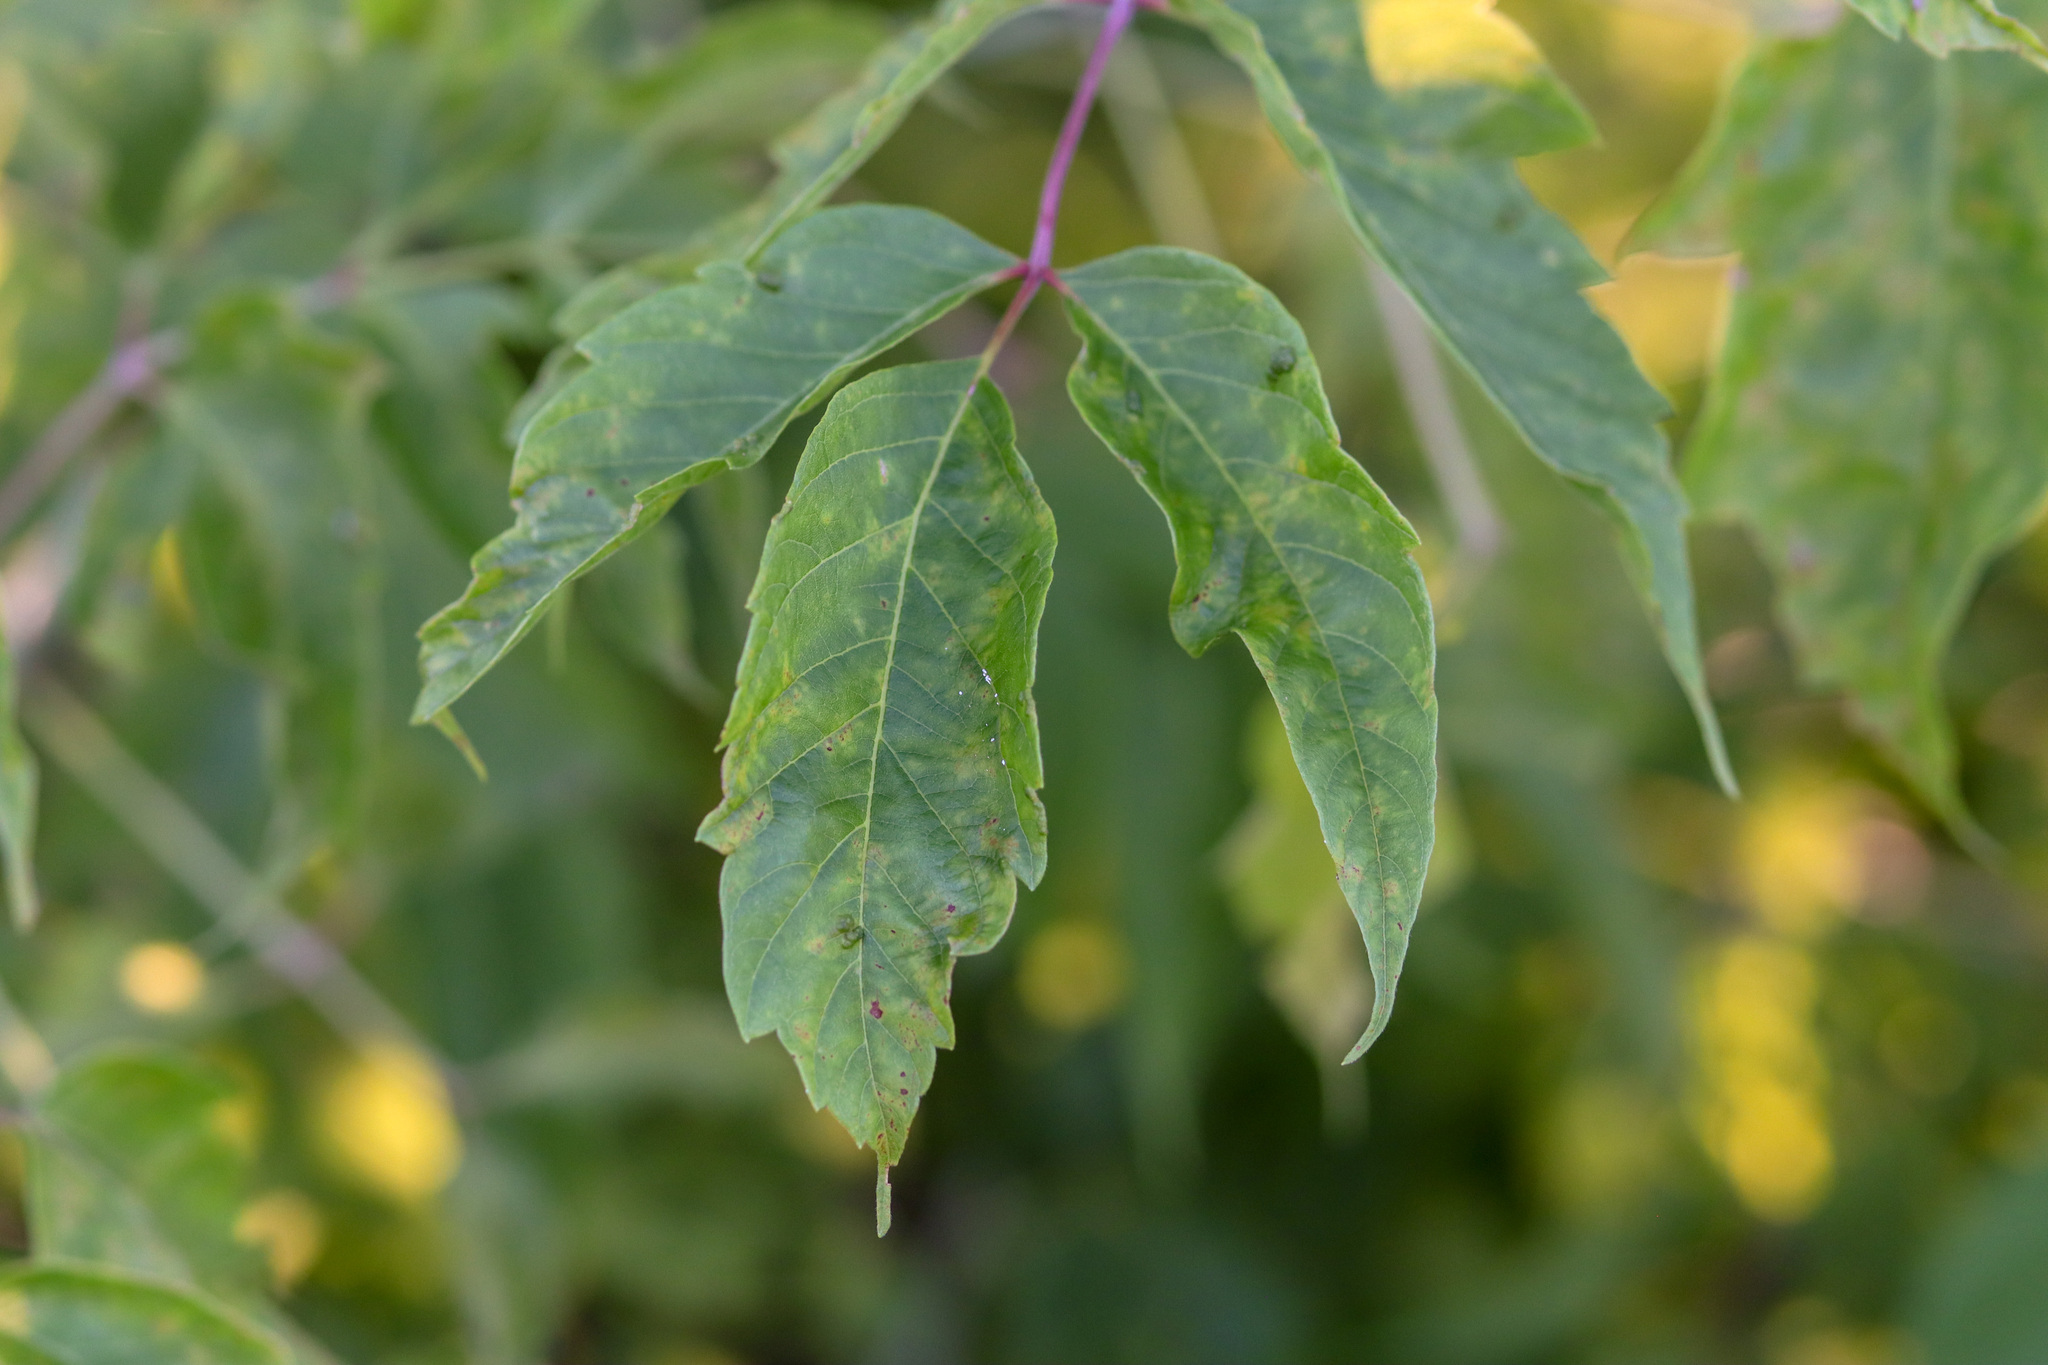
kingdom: Plantae
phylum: Tracheophyta
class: Magnoliopsida
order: Sapindales
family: Sapindaceae
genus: Acer
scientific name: Acer negundo
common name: Ashleaf maple
